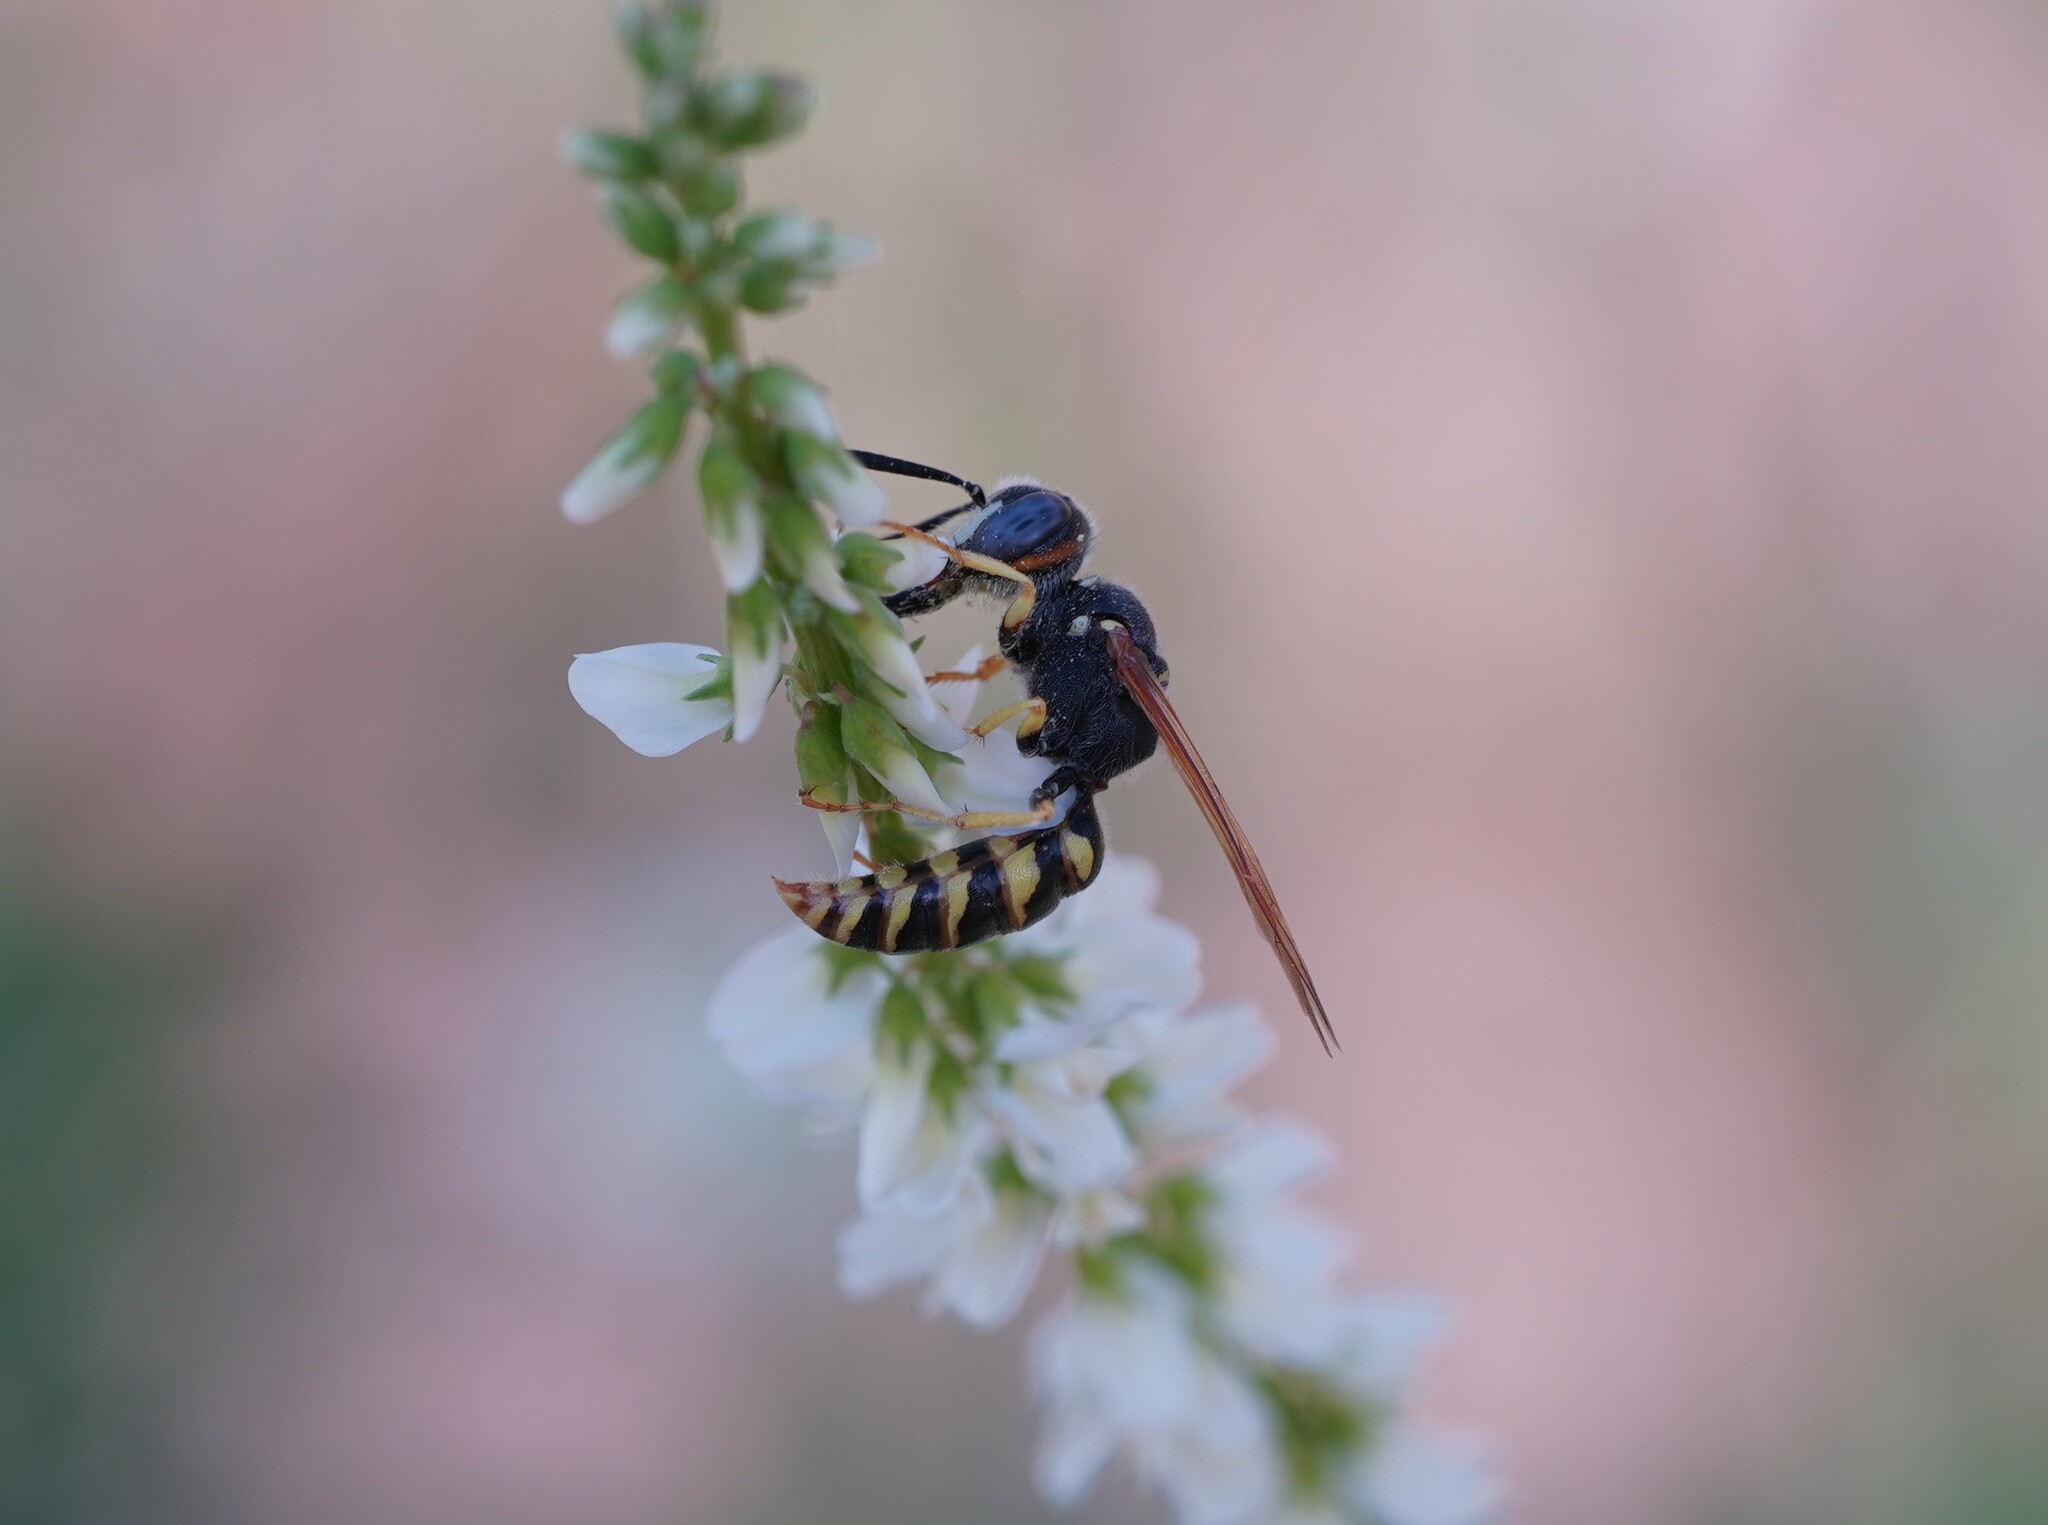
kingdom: Animalia
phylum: Arthropoda
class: Insecta
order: Hymenoptera
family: Crabronidae
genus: Philanthus
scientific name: Philanthus triangulum
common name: Bee wolf
